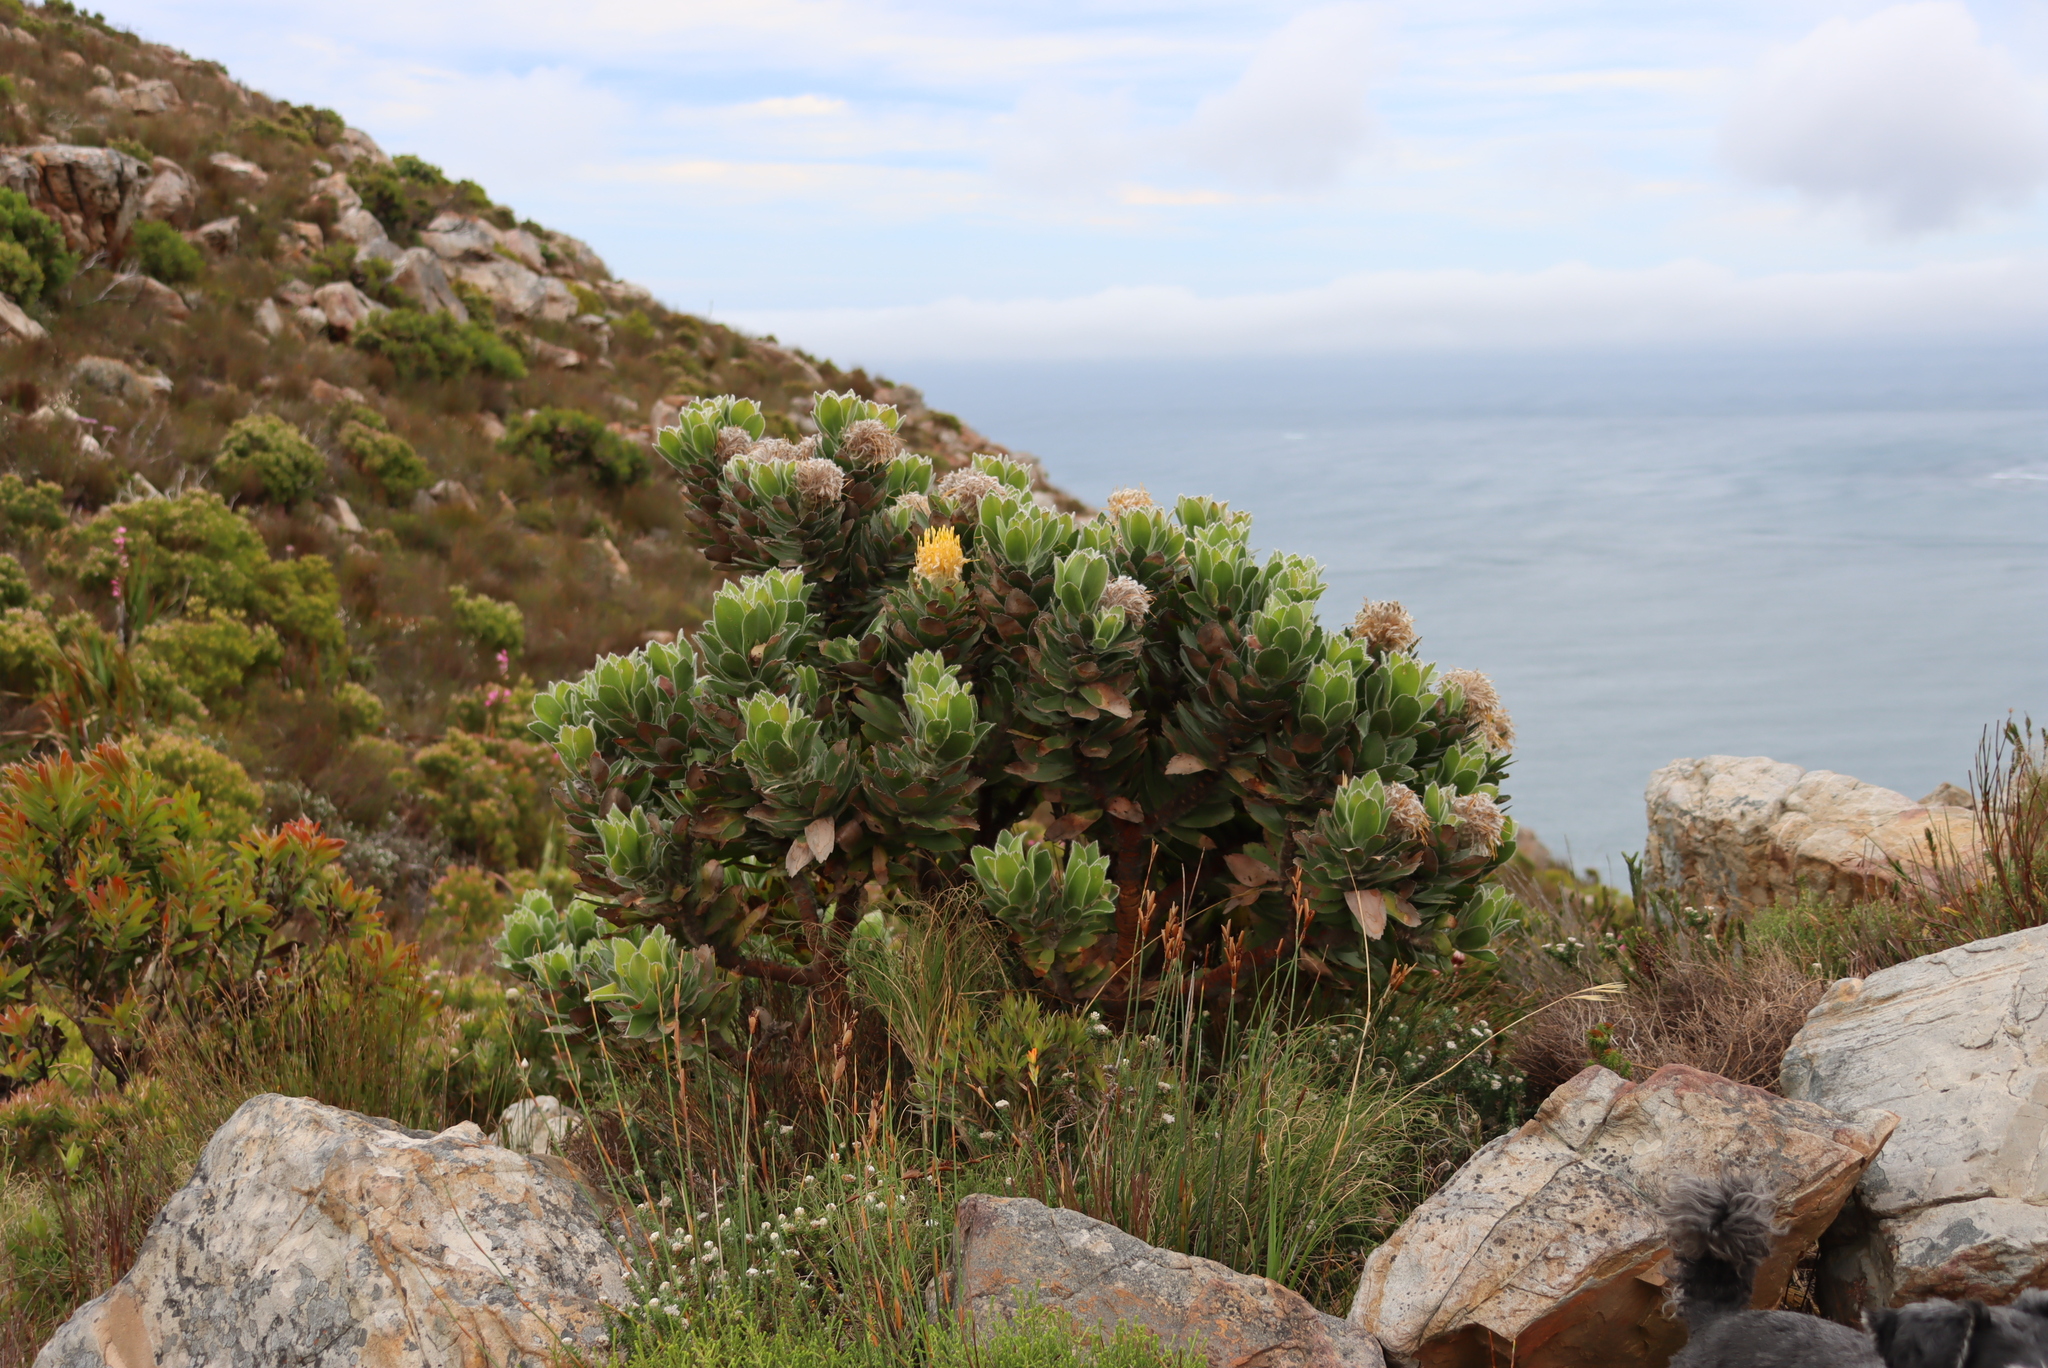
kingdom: Plantae
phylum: Tracheophyta
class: Magnoliopsida
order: Proteales
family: Proteaceae
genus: Leucospermum
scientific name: Leucospermum conocarpodendron
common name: Tree pincushion
